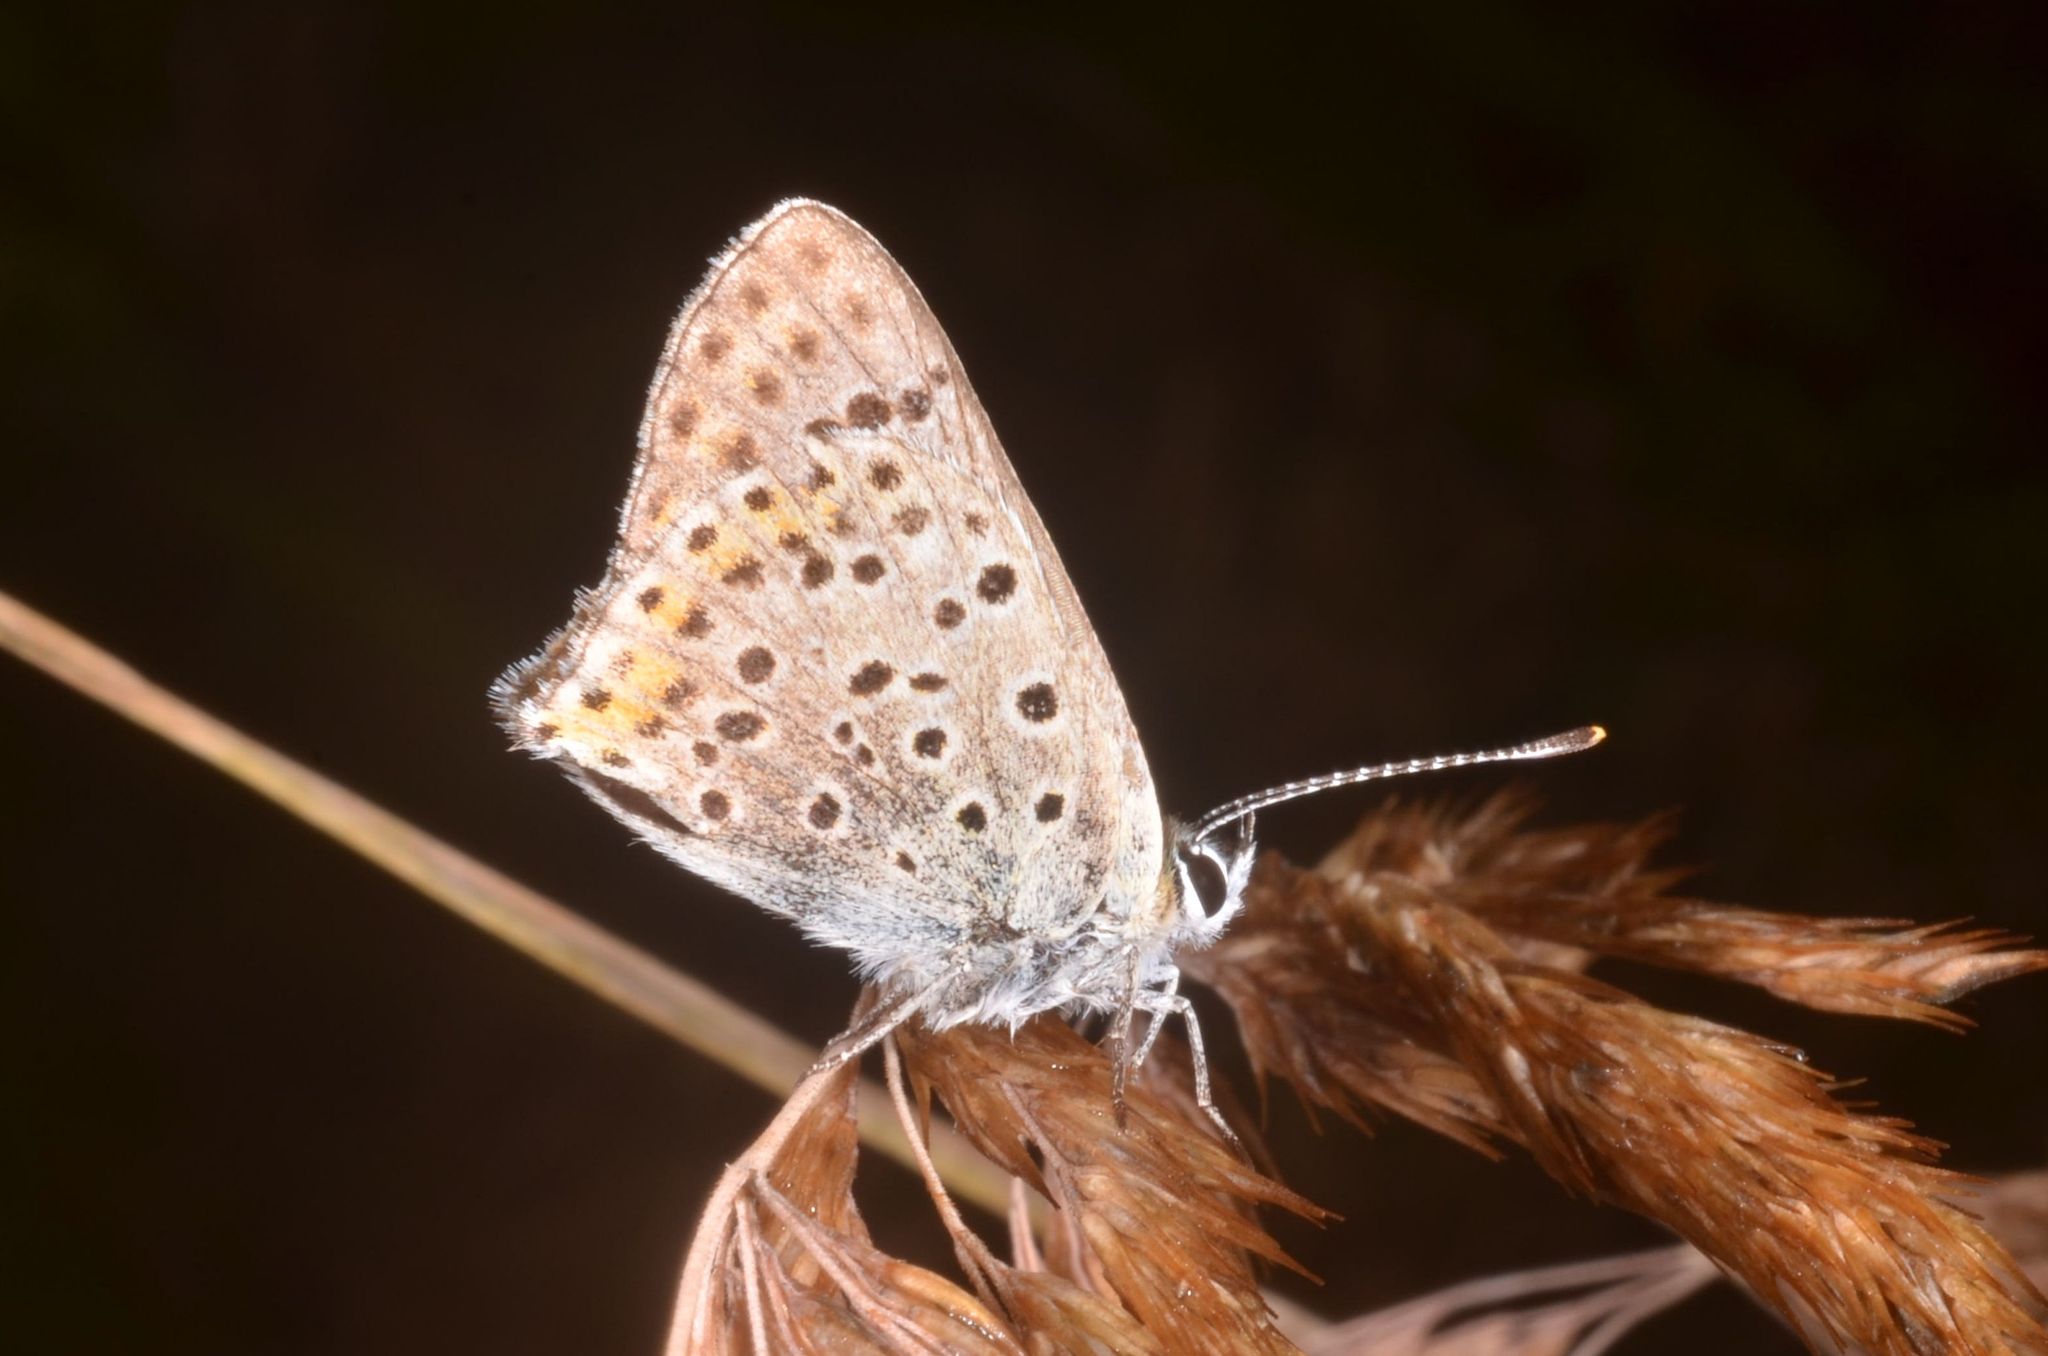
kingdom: Animalia
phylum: Arthropoda
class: Insecta
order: Lepidoptera
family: Lycaenidae
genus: Loweia
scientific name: Loweia tityrus
